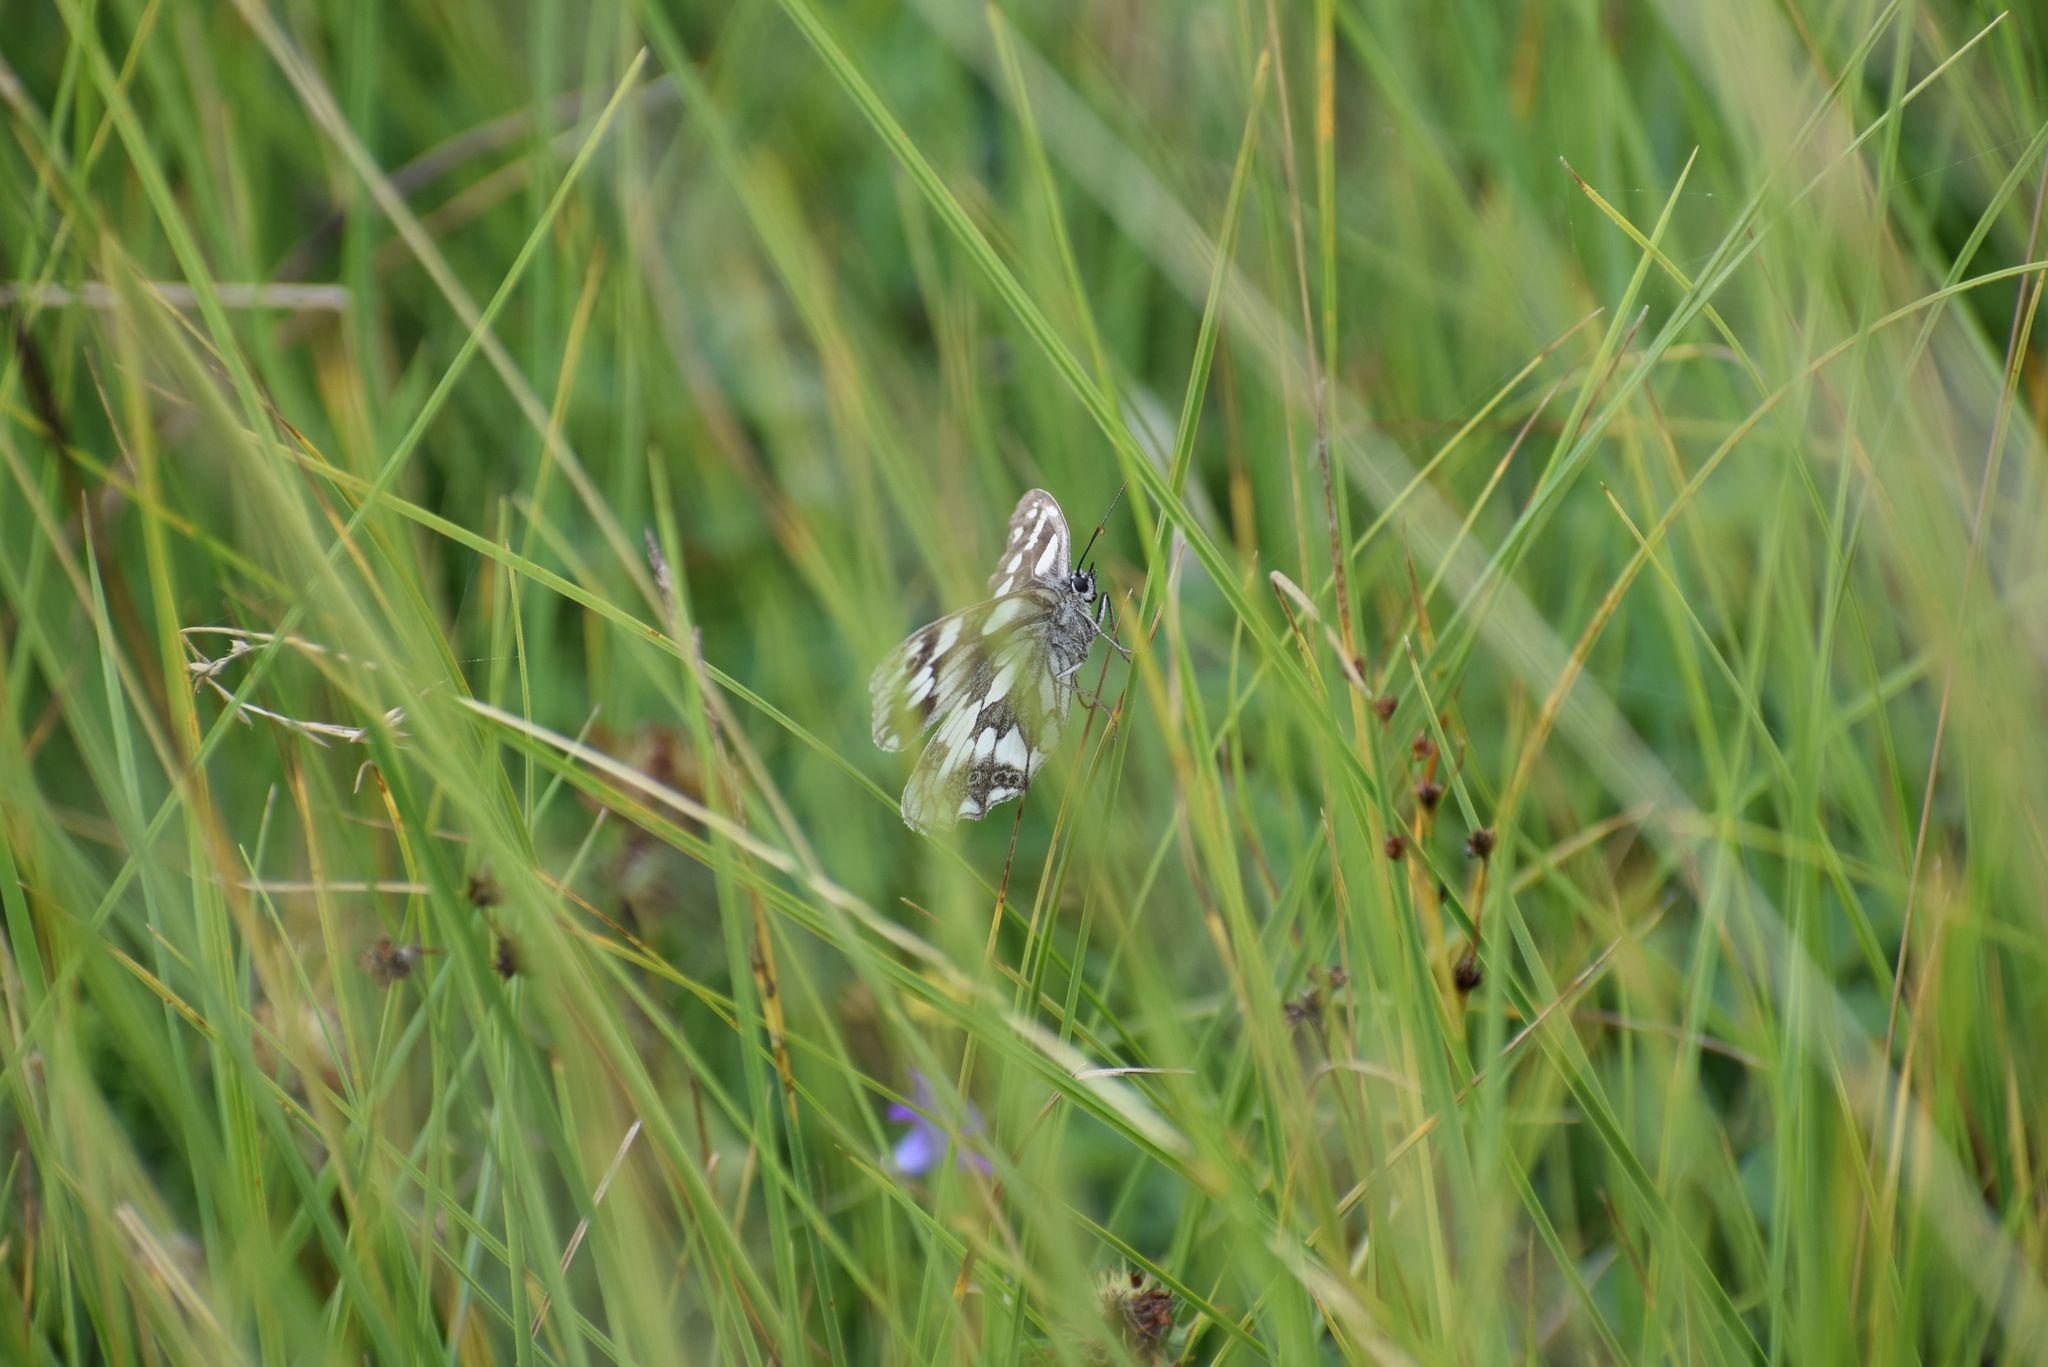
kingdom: Animalia
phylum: Arthropoda
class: Insecta
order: Lepidoptera
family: Nymphalidae
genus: Melanargia
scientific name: Melanargia galathea
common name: Marbled white
